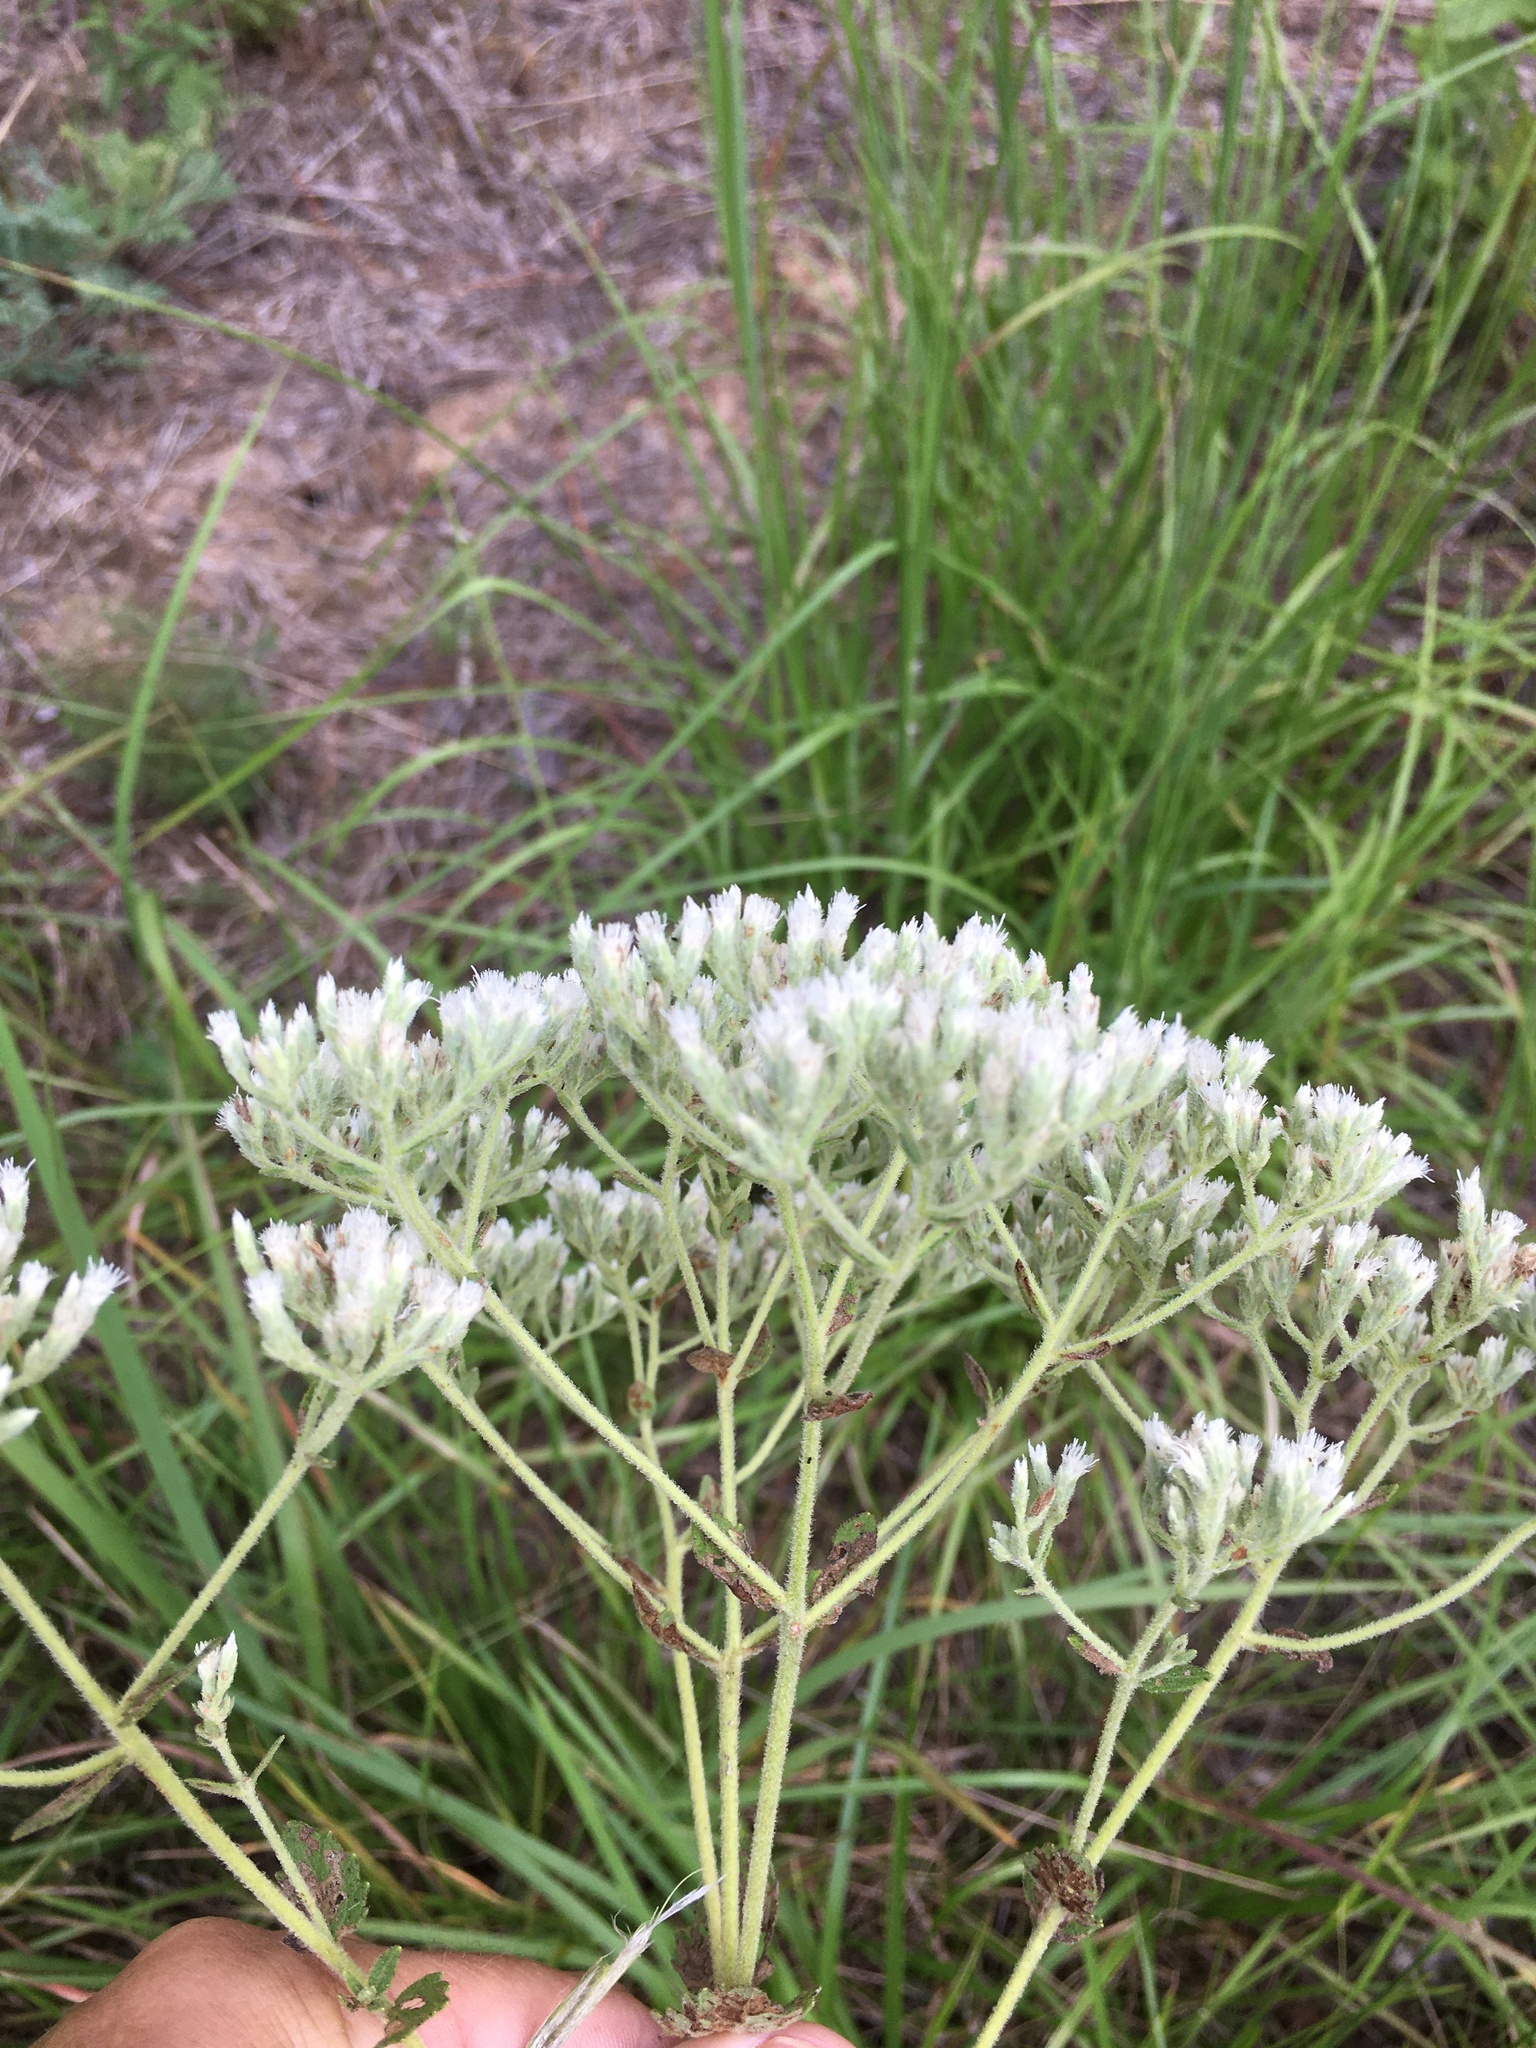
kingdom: Plantae
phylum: Tracheophyta
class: Magnoliopsida
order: Asterales
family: Asteraceae
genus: Eupatorium
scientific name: Eupatorium rotundifolium
